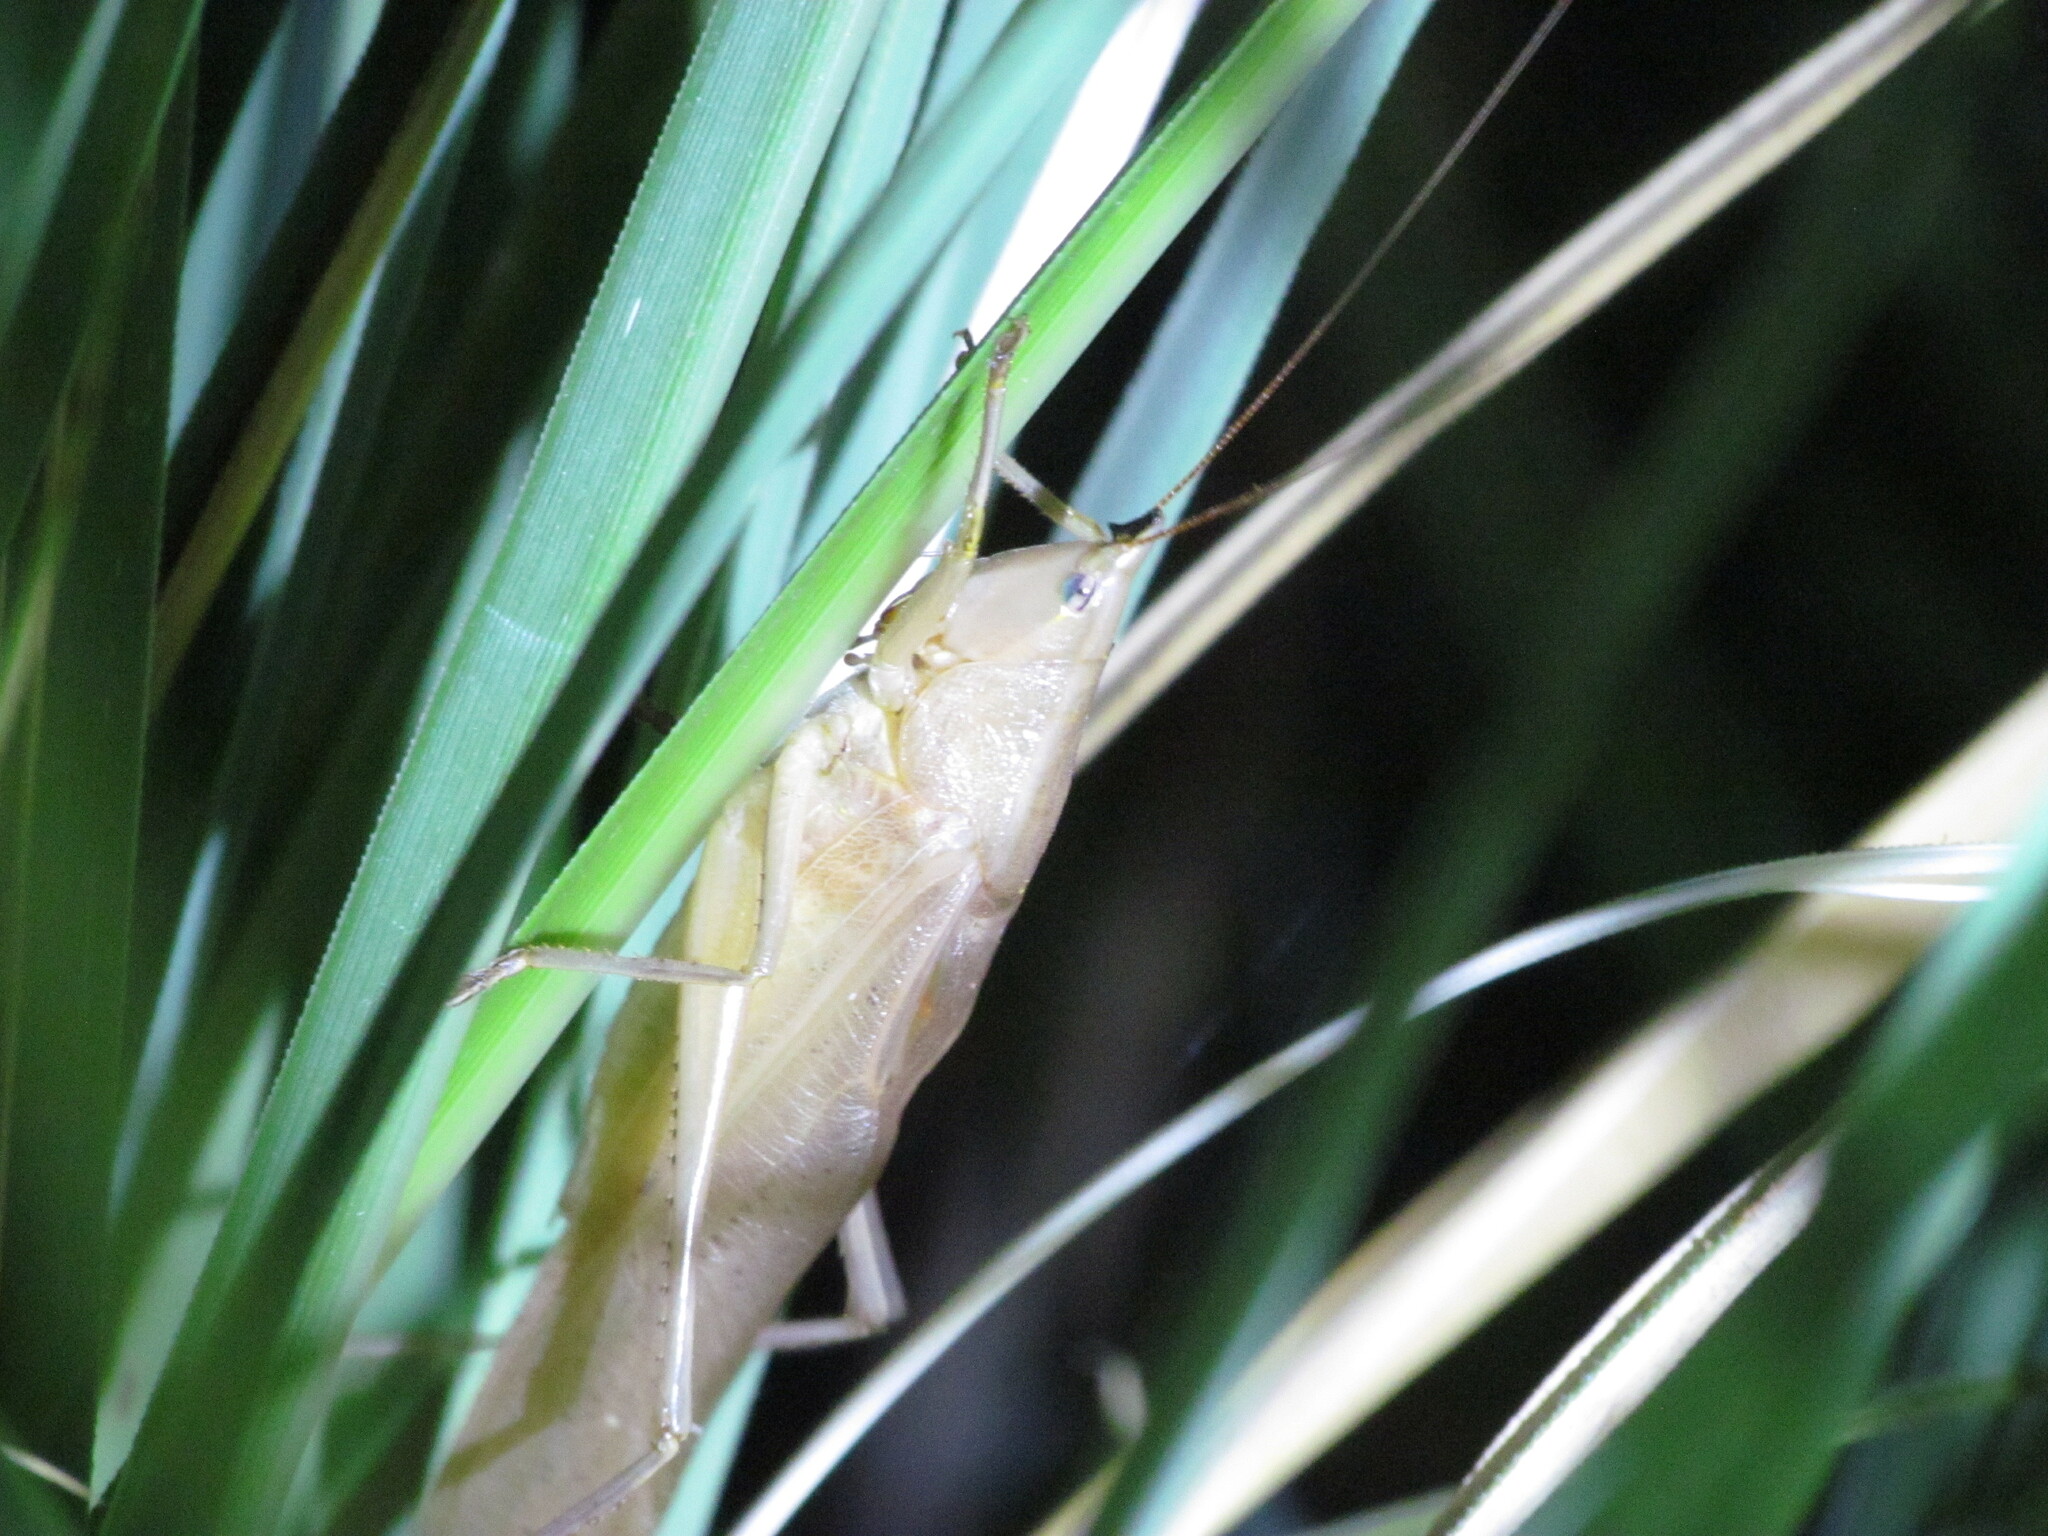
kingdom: Animalia
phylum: Arthropoda
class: Insecta
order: Orthoptera
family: Tettigoniidae
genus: Neoconocephalus
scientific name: Neoconocephalus nigromaculatus
